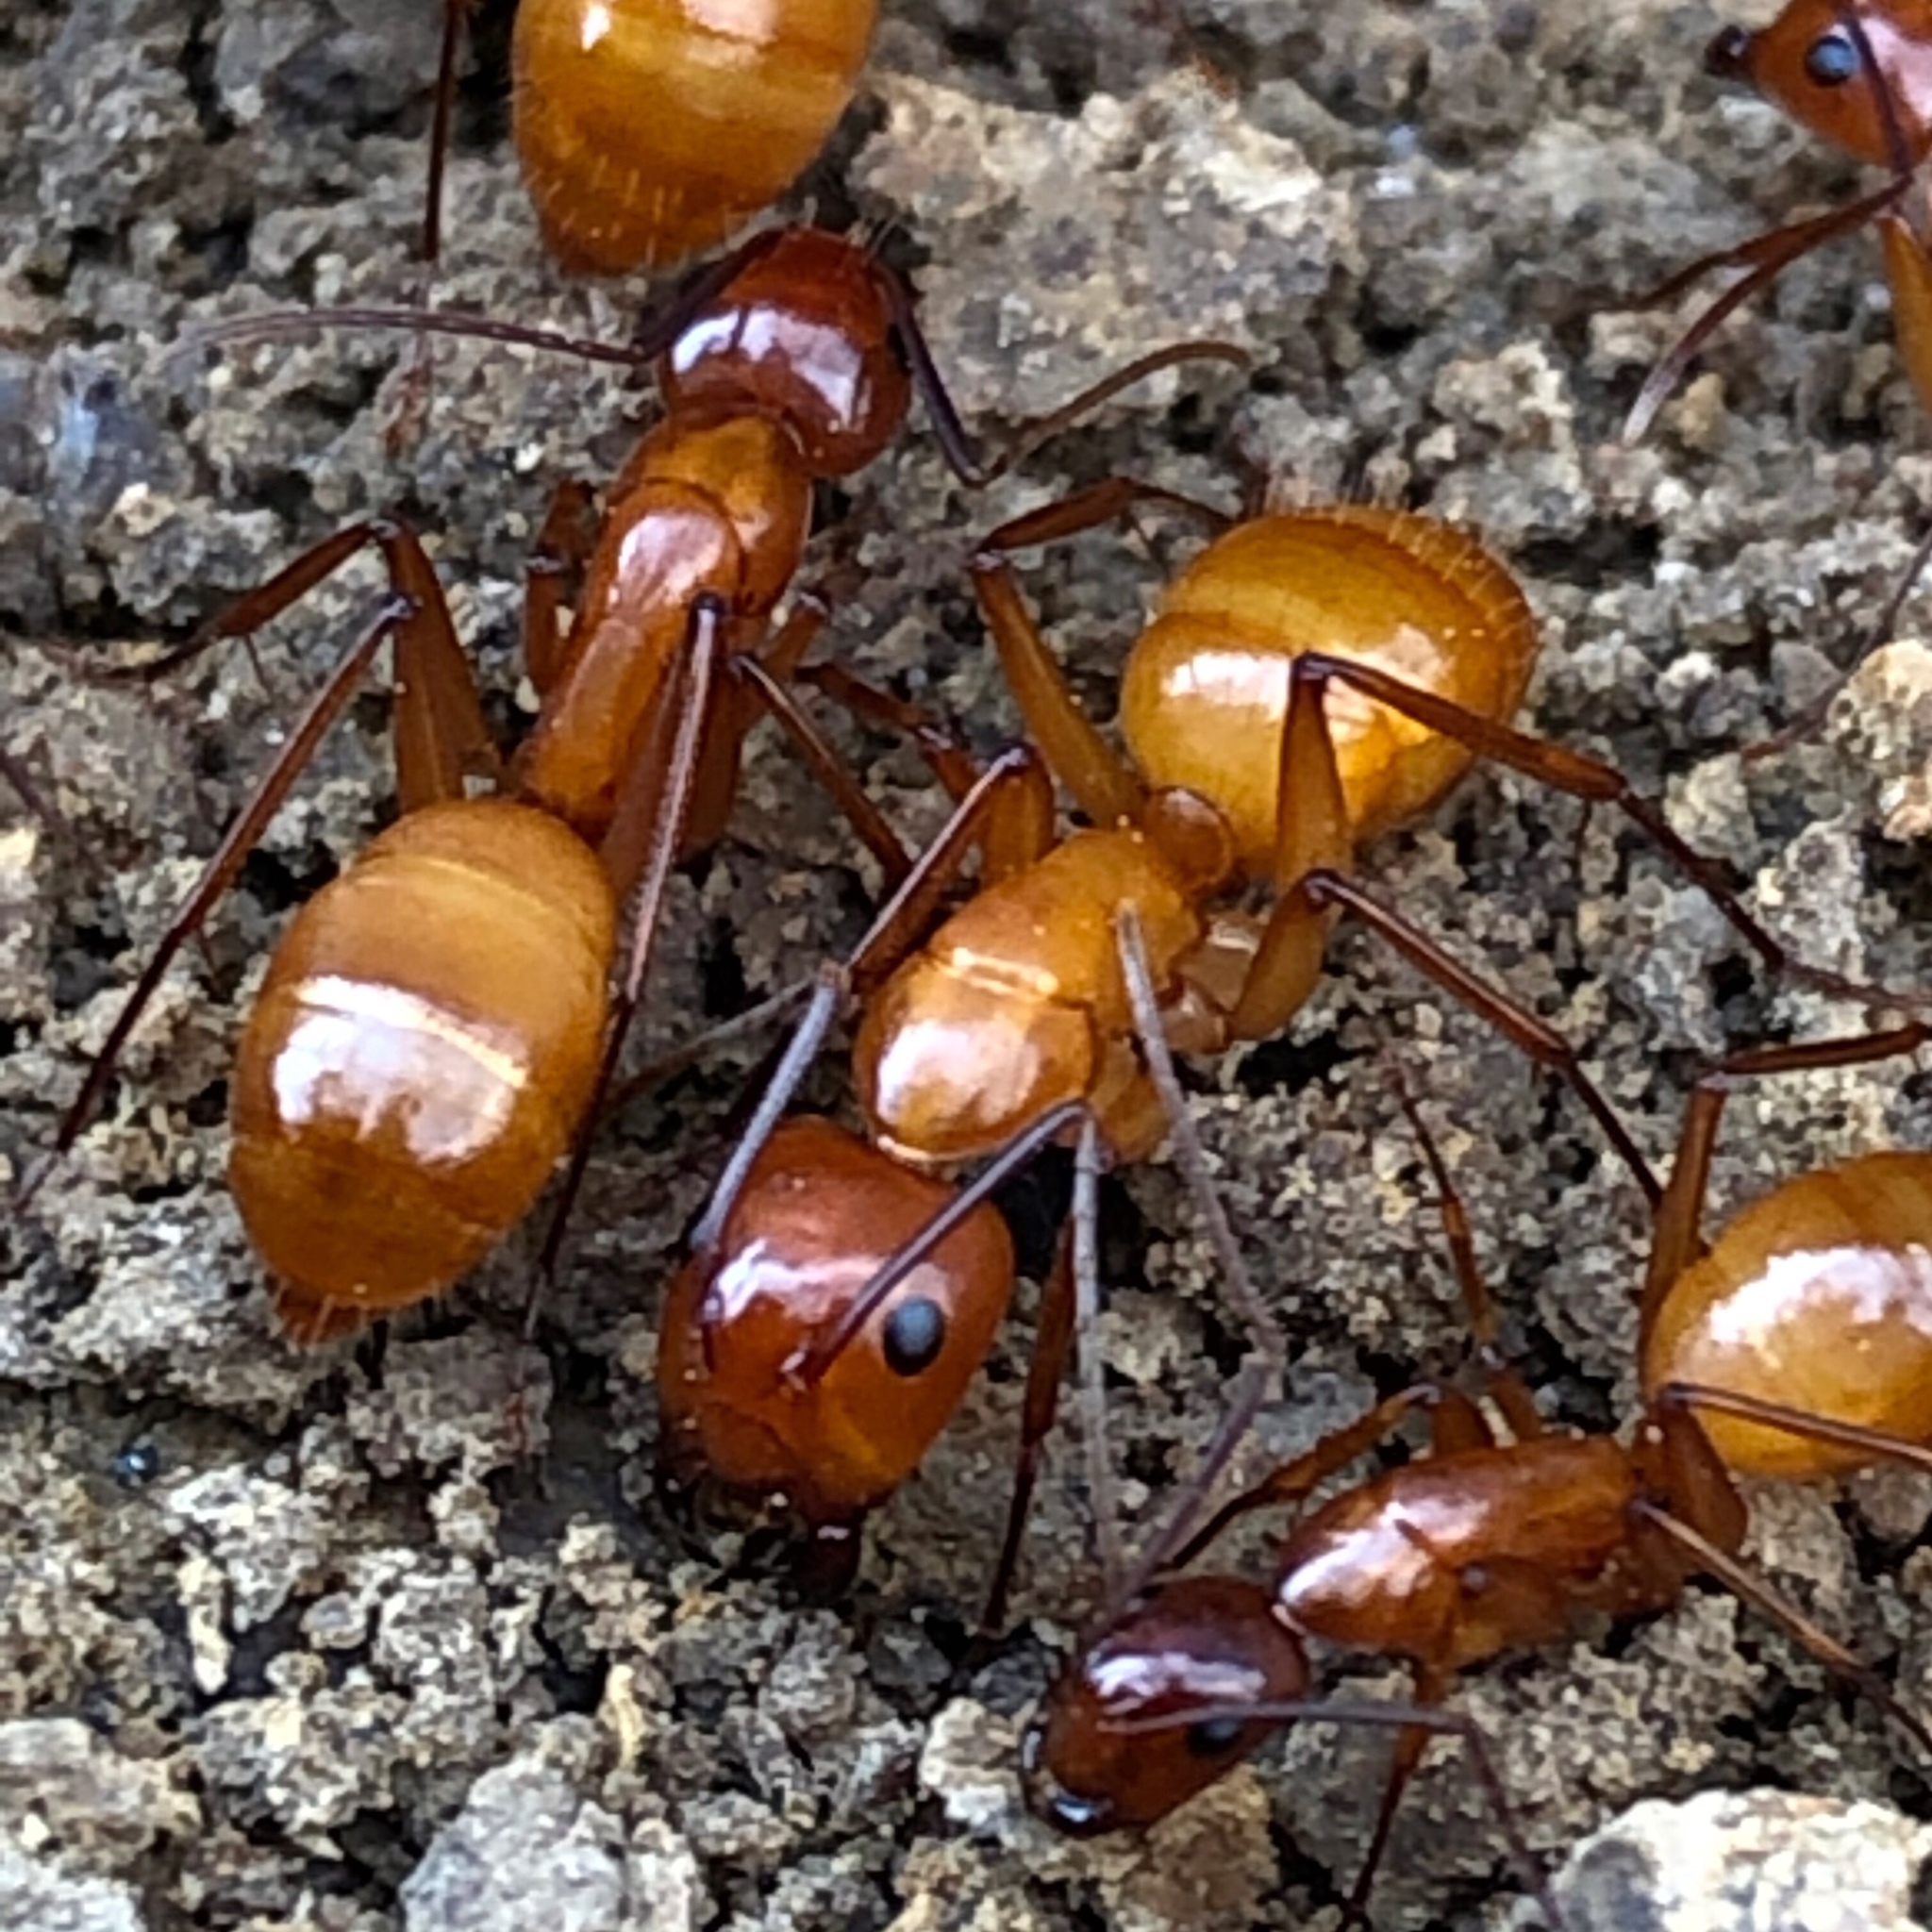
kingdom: Animalia
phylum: Arthropoda
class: Insecta
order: Hymenoptera
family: Formicidae
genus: Camponotus
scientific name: Camponotus castaneus
